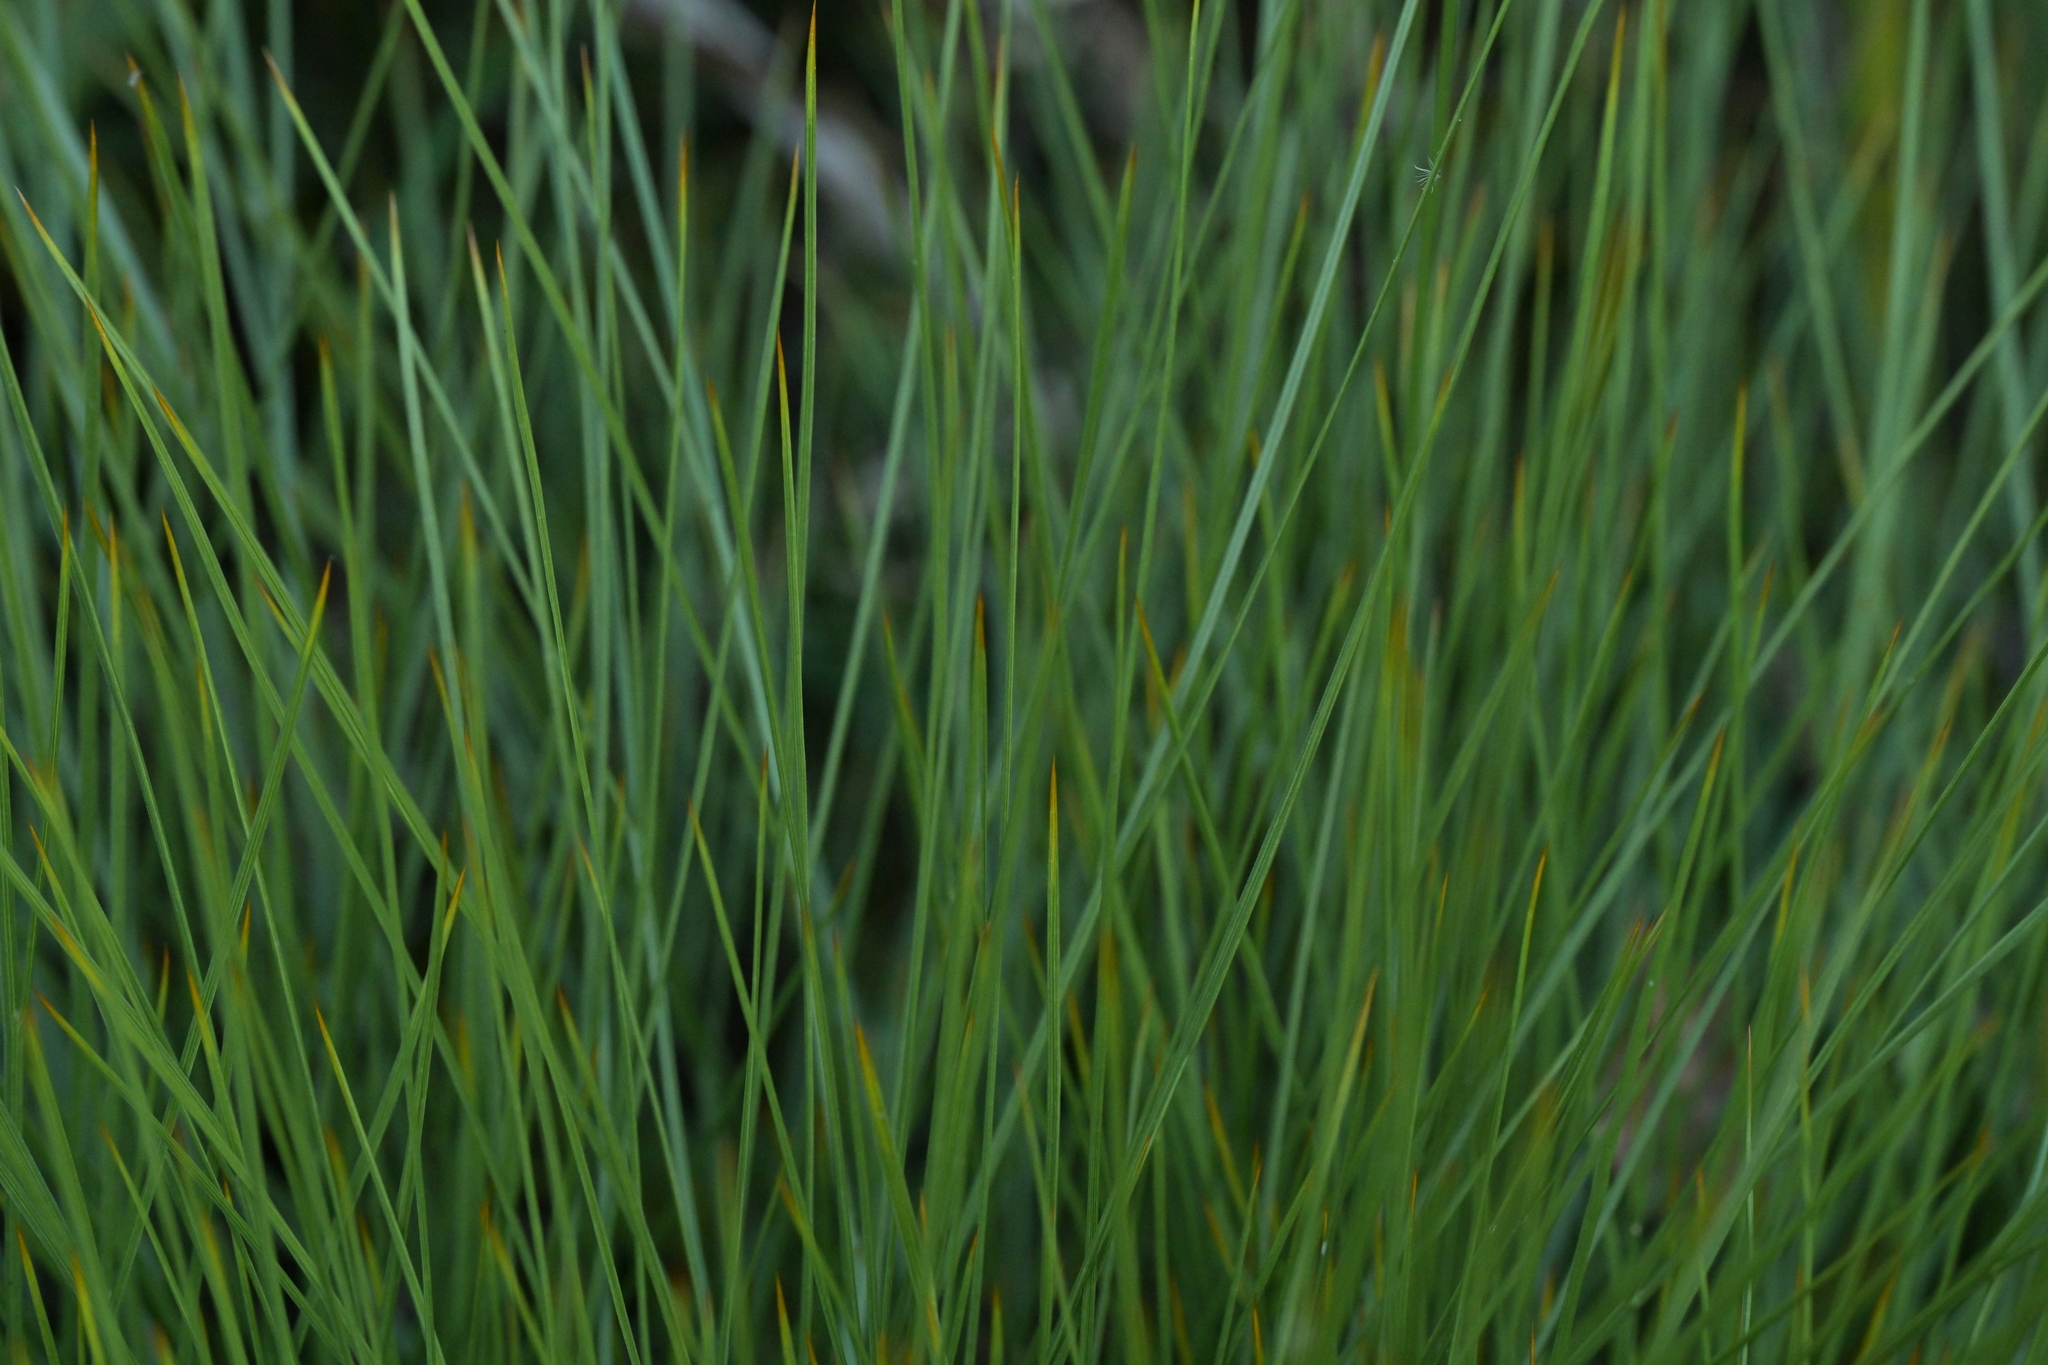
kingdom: Plantae
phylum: Tracheophyta
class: Magnoliopsida
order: Apiales
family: Apiaceae
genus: Aciphylla
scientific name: Aciphylla squarrosa
